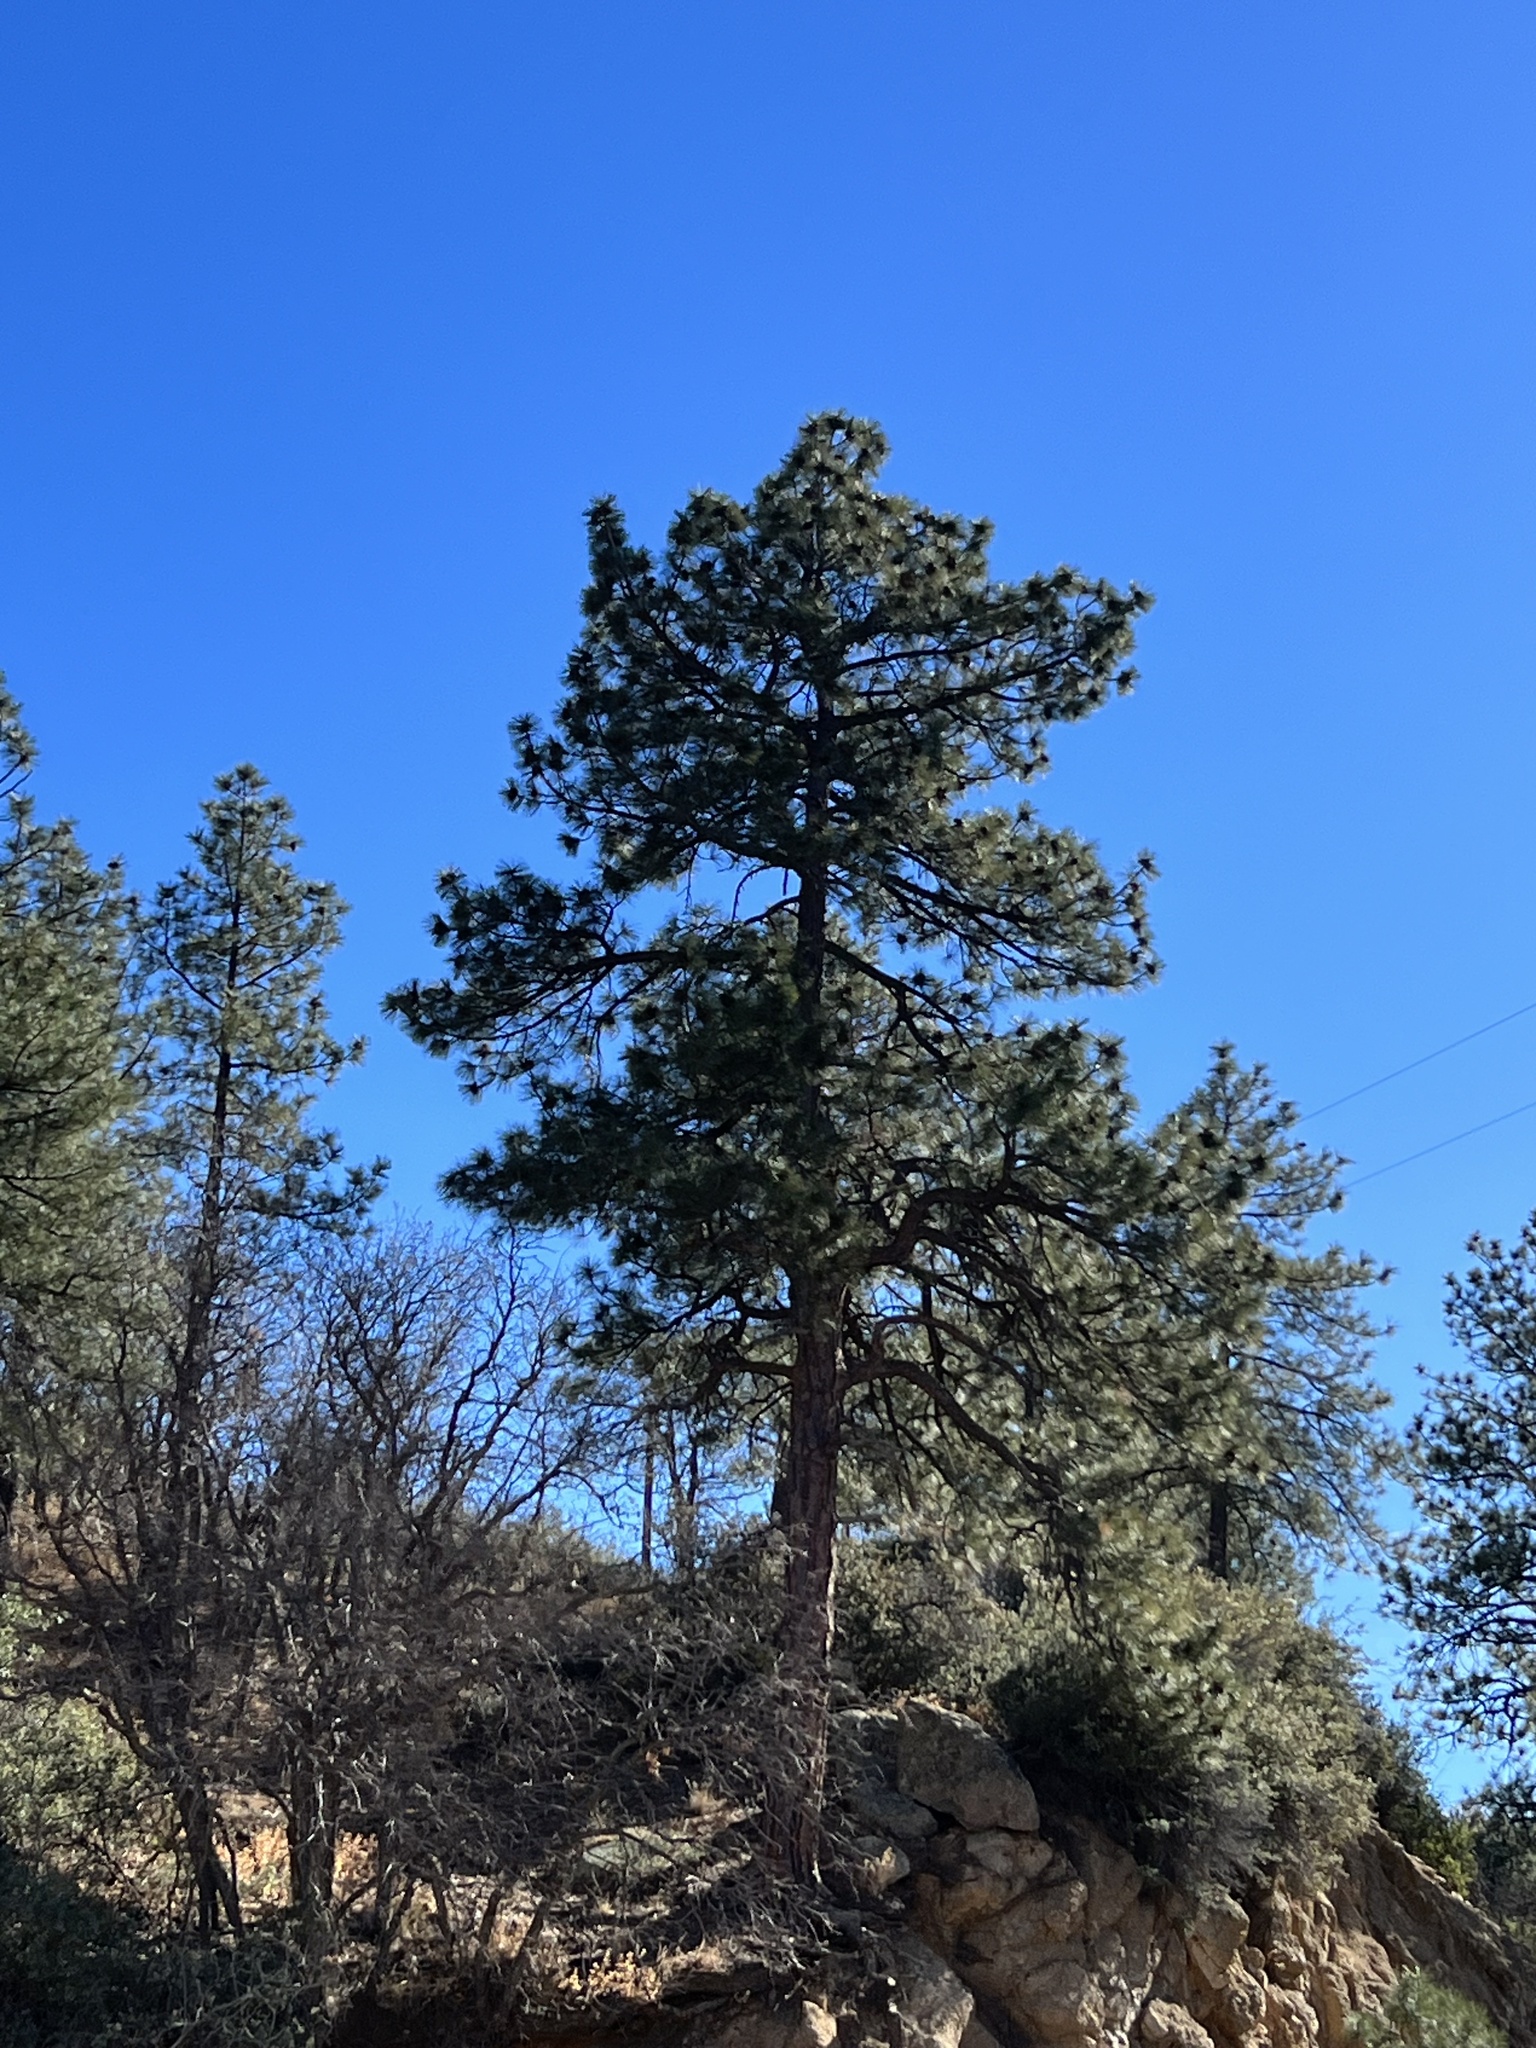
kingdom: Plantae
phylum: Tracheophyta
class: Pinopsida
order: Pinales
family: Pinaceae
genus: Pinus
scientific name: Pinus ponderosa
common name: Western yellow-pine
